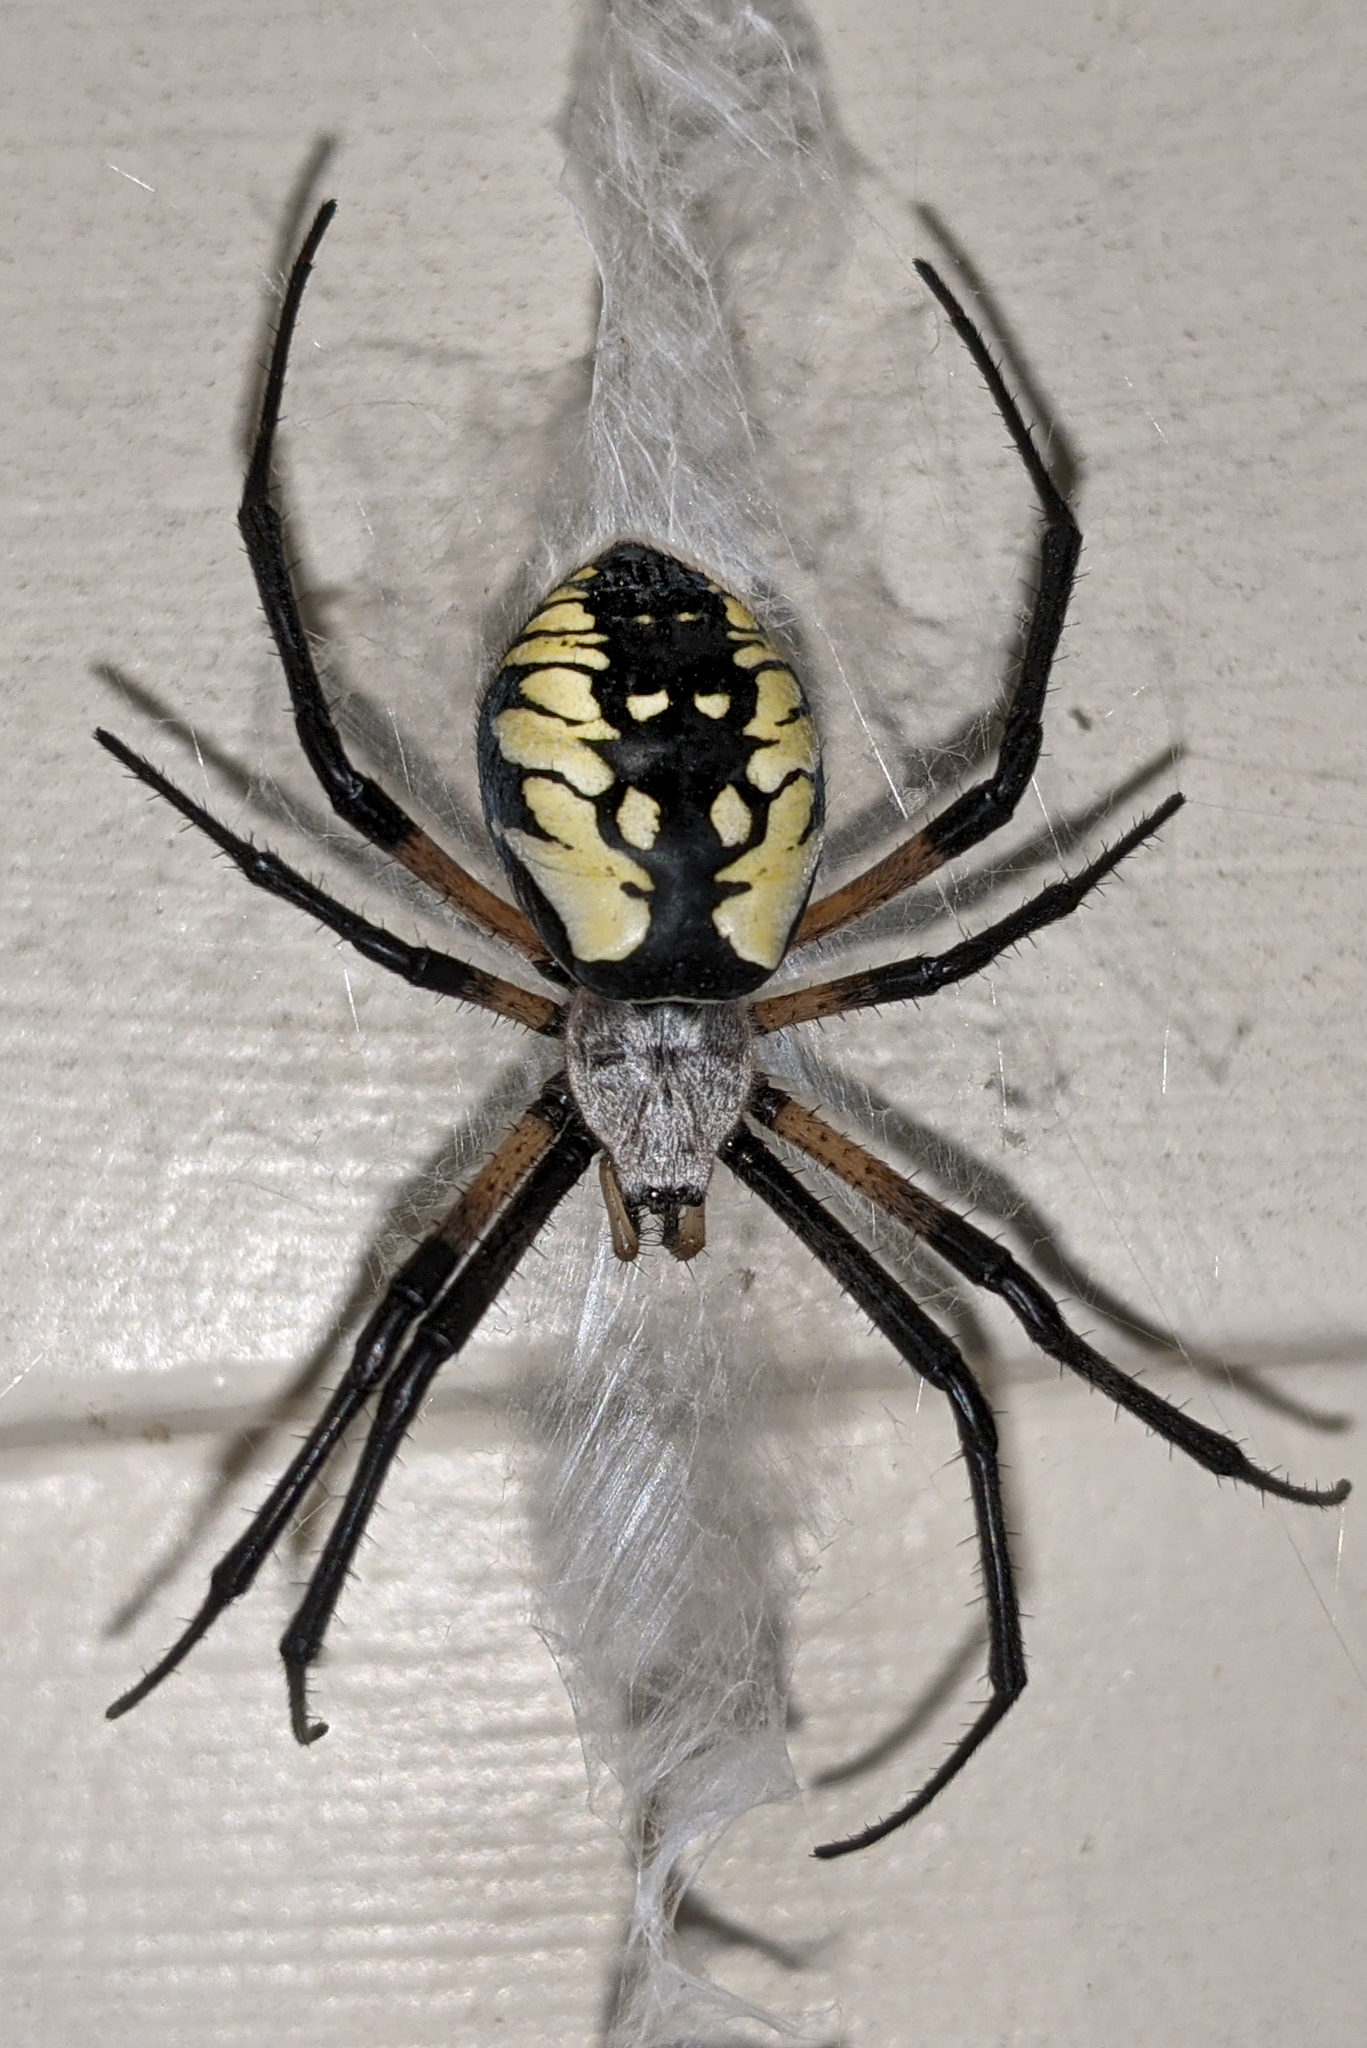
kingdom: Animalia
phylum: Arthropoda
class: Arachnida
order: Araneae
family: Araneidae
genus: Argiope
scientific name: Argiope aurantia
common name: Orb weavers
